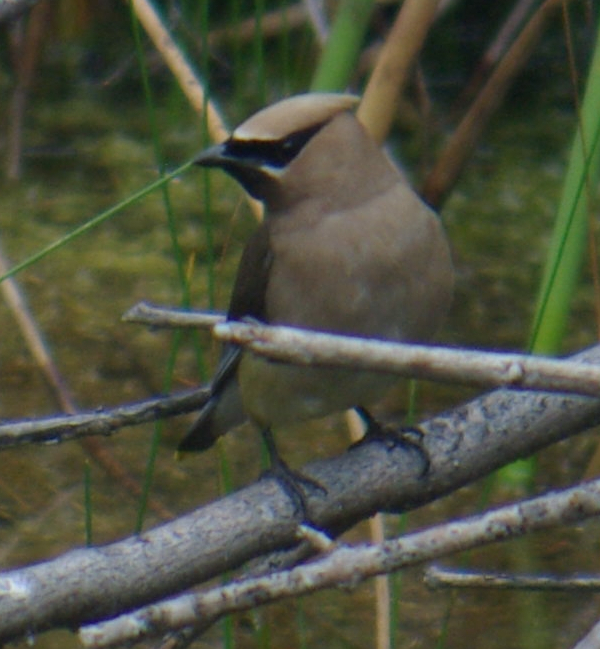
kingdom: Animalia
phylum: Chordata
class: Aves
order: Passeriformes
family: Bombycillidae
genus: Bombycilla
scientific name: Bombycilla cedrorum
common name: Cedar waxwing
